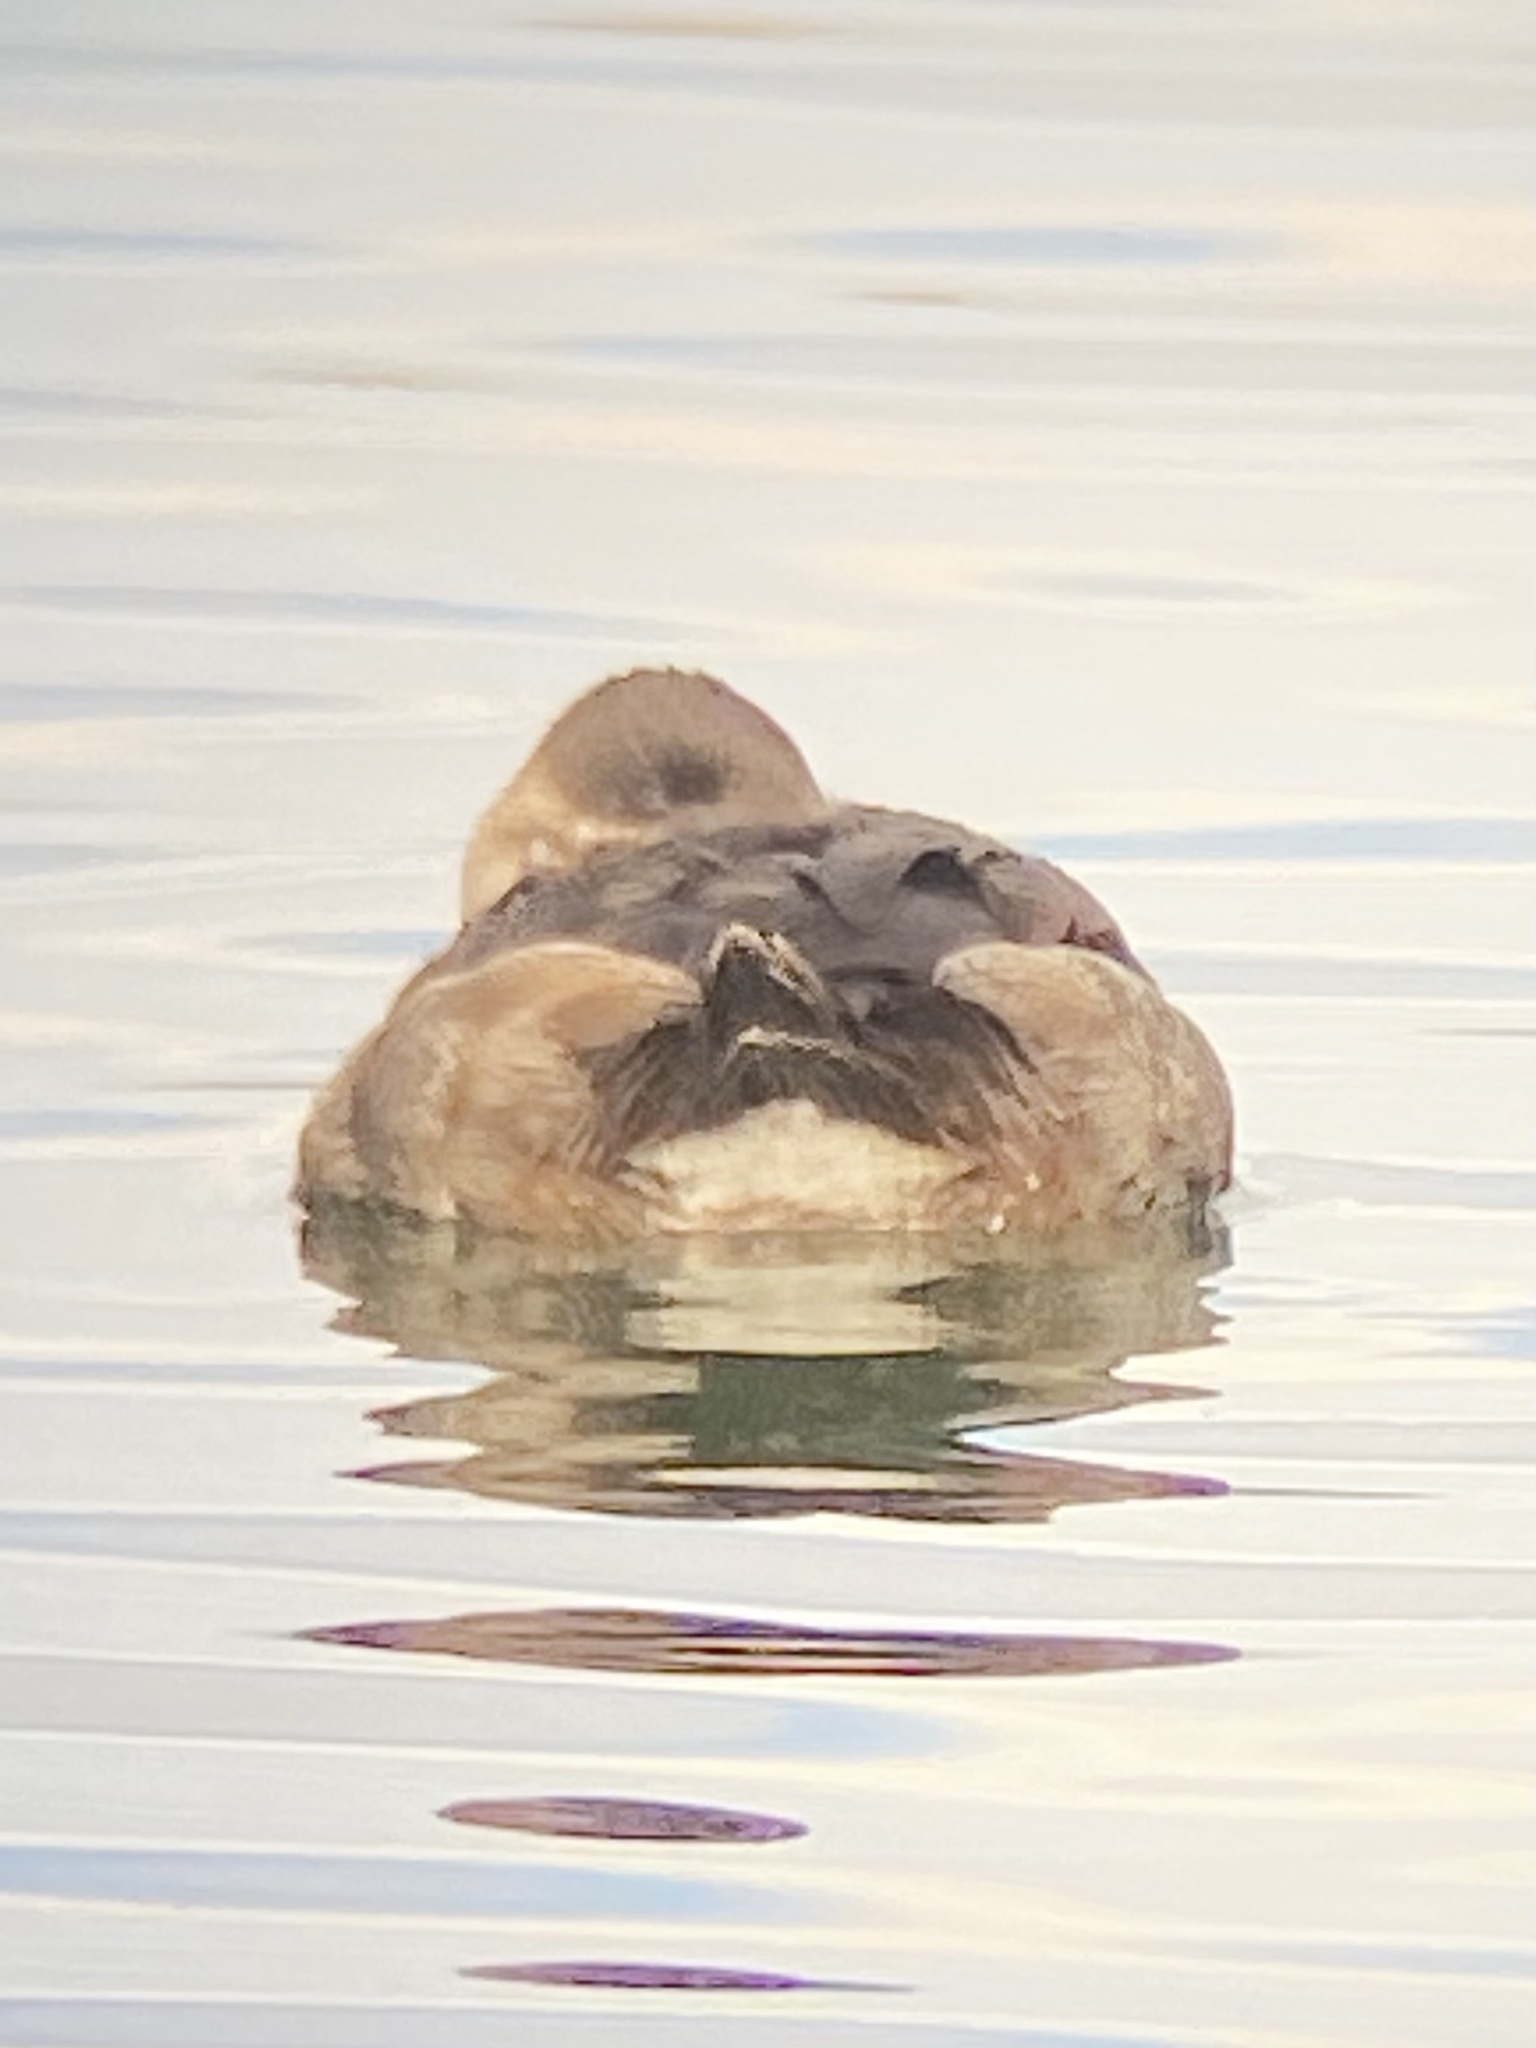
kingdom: Animalia
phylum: Chordata
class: Aves
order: Anseriformes
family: Anatidae
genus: Oxyura
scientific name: Oxyura jamaicensis
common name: Ruddy duck
